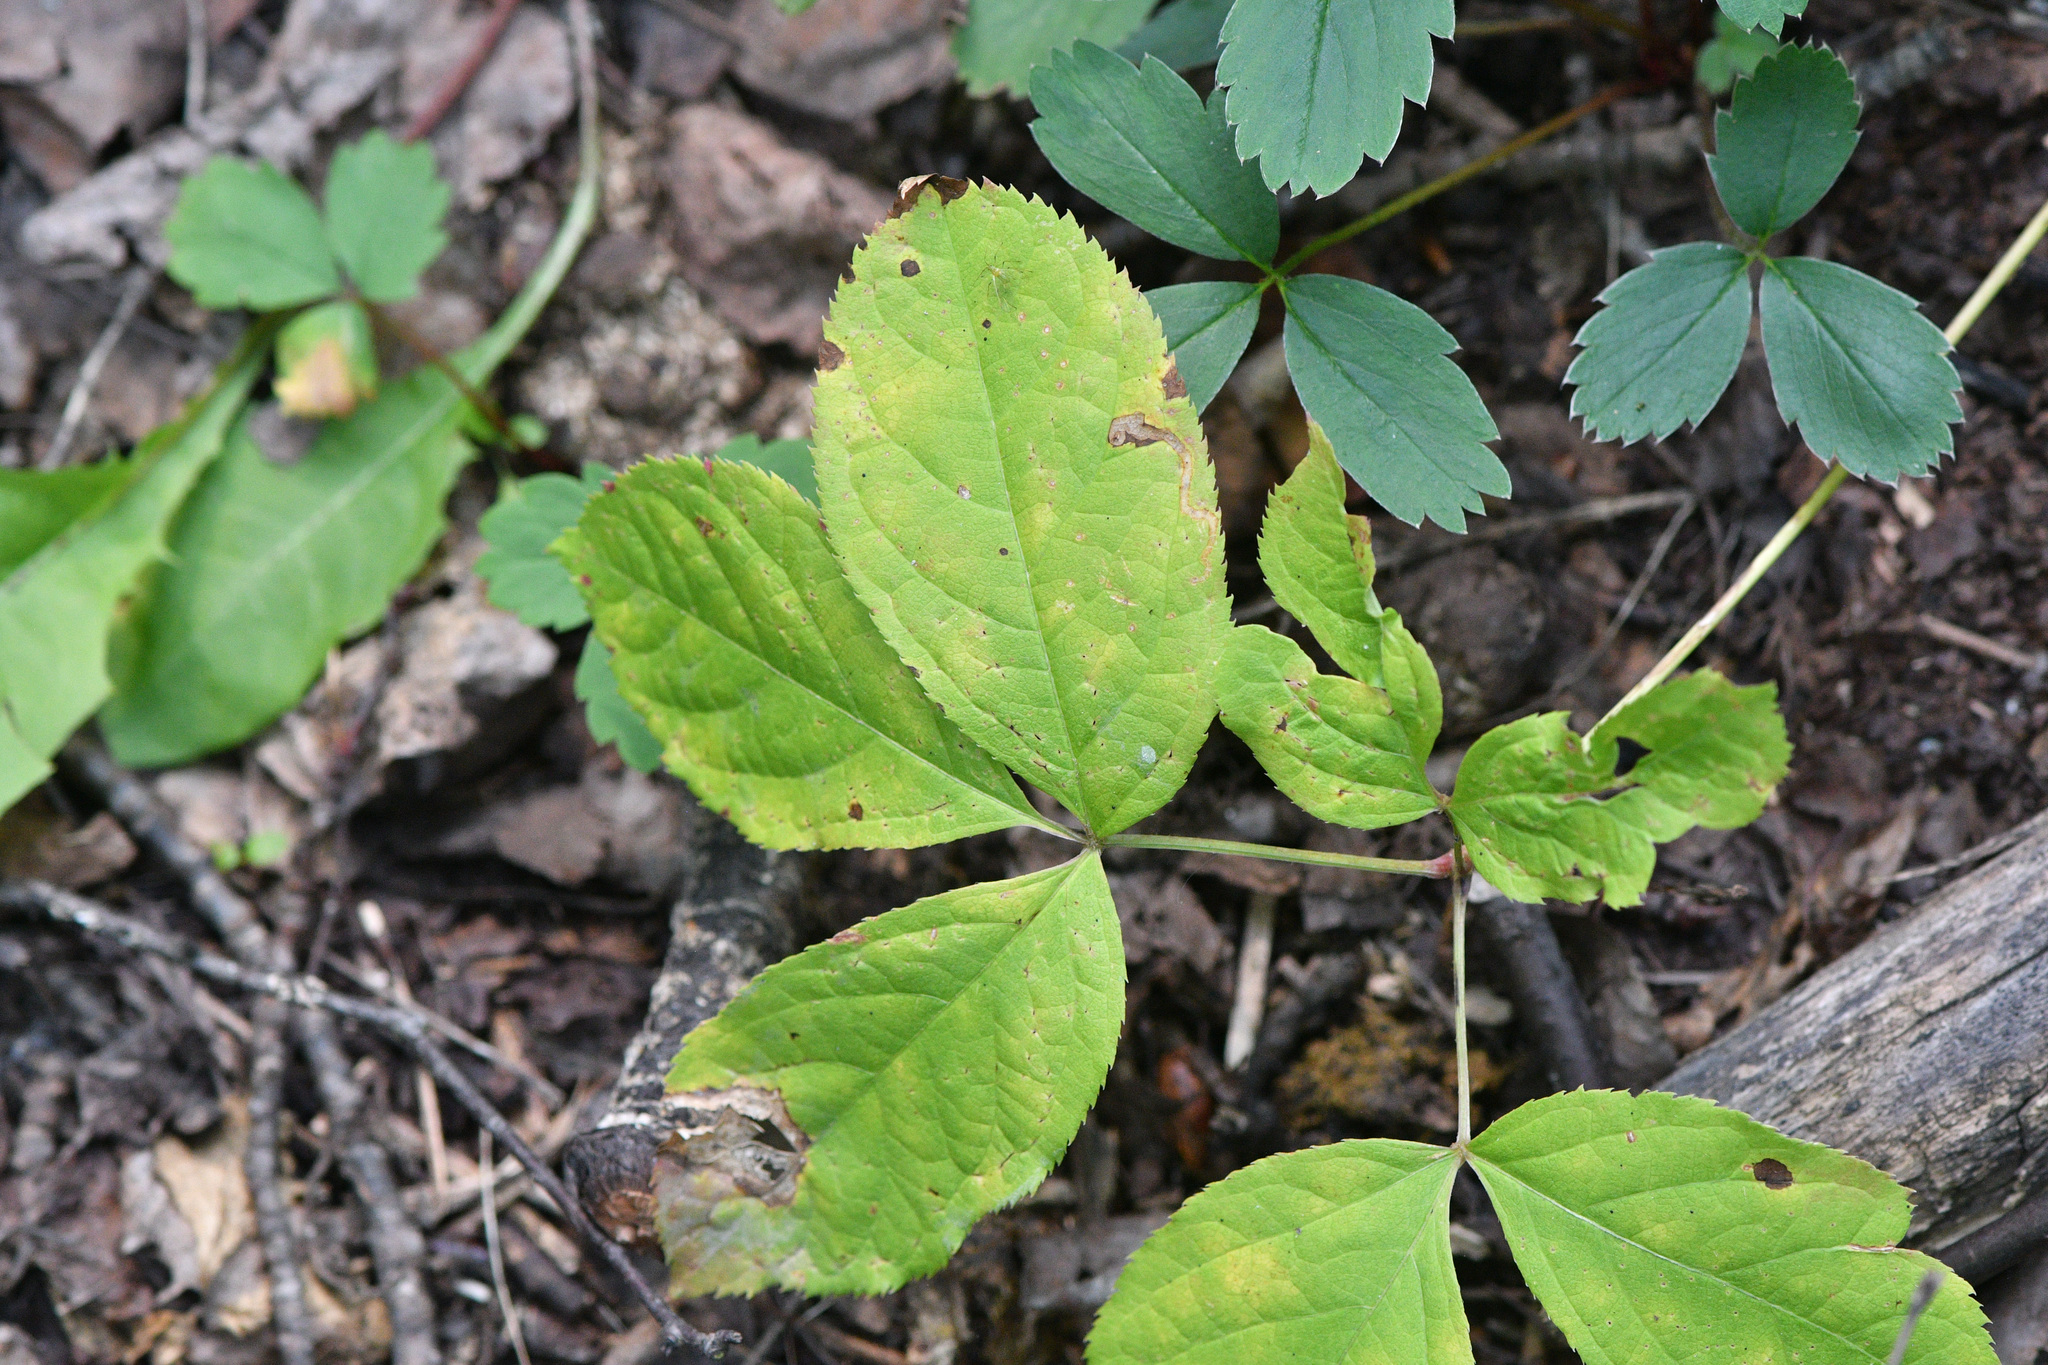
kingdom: Plantae
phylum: Tracheophyta
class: Magnoliopsida
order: Apiales
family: Araliaceae
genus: Aralia
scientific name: Aralia nudicaulis
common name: Wild sarsaparilla
